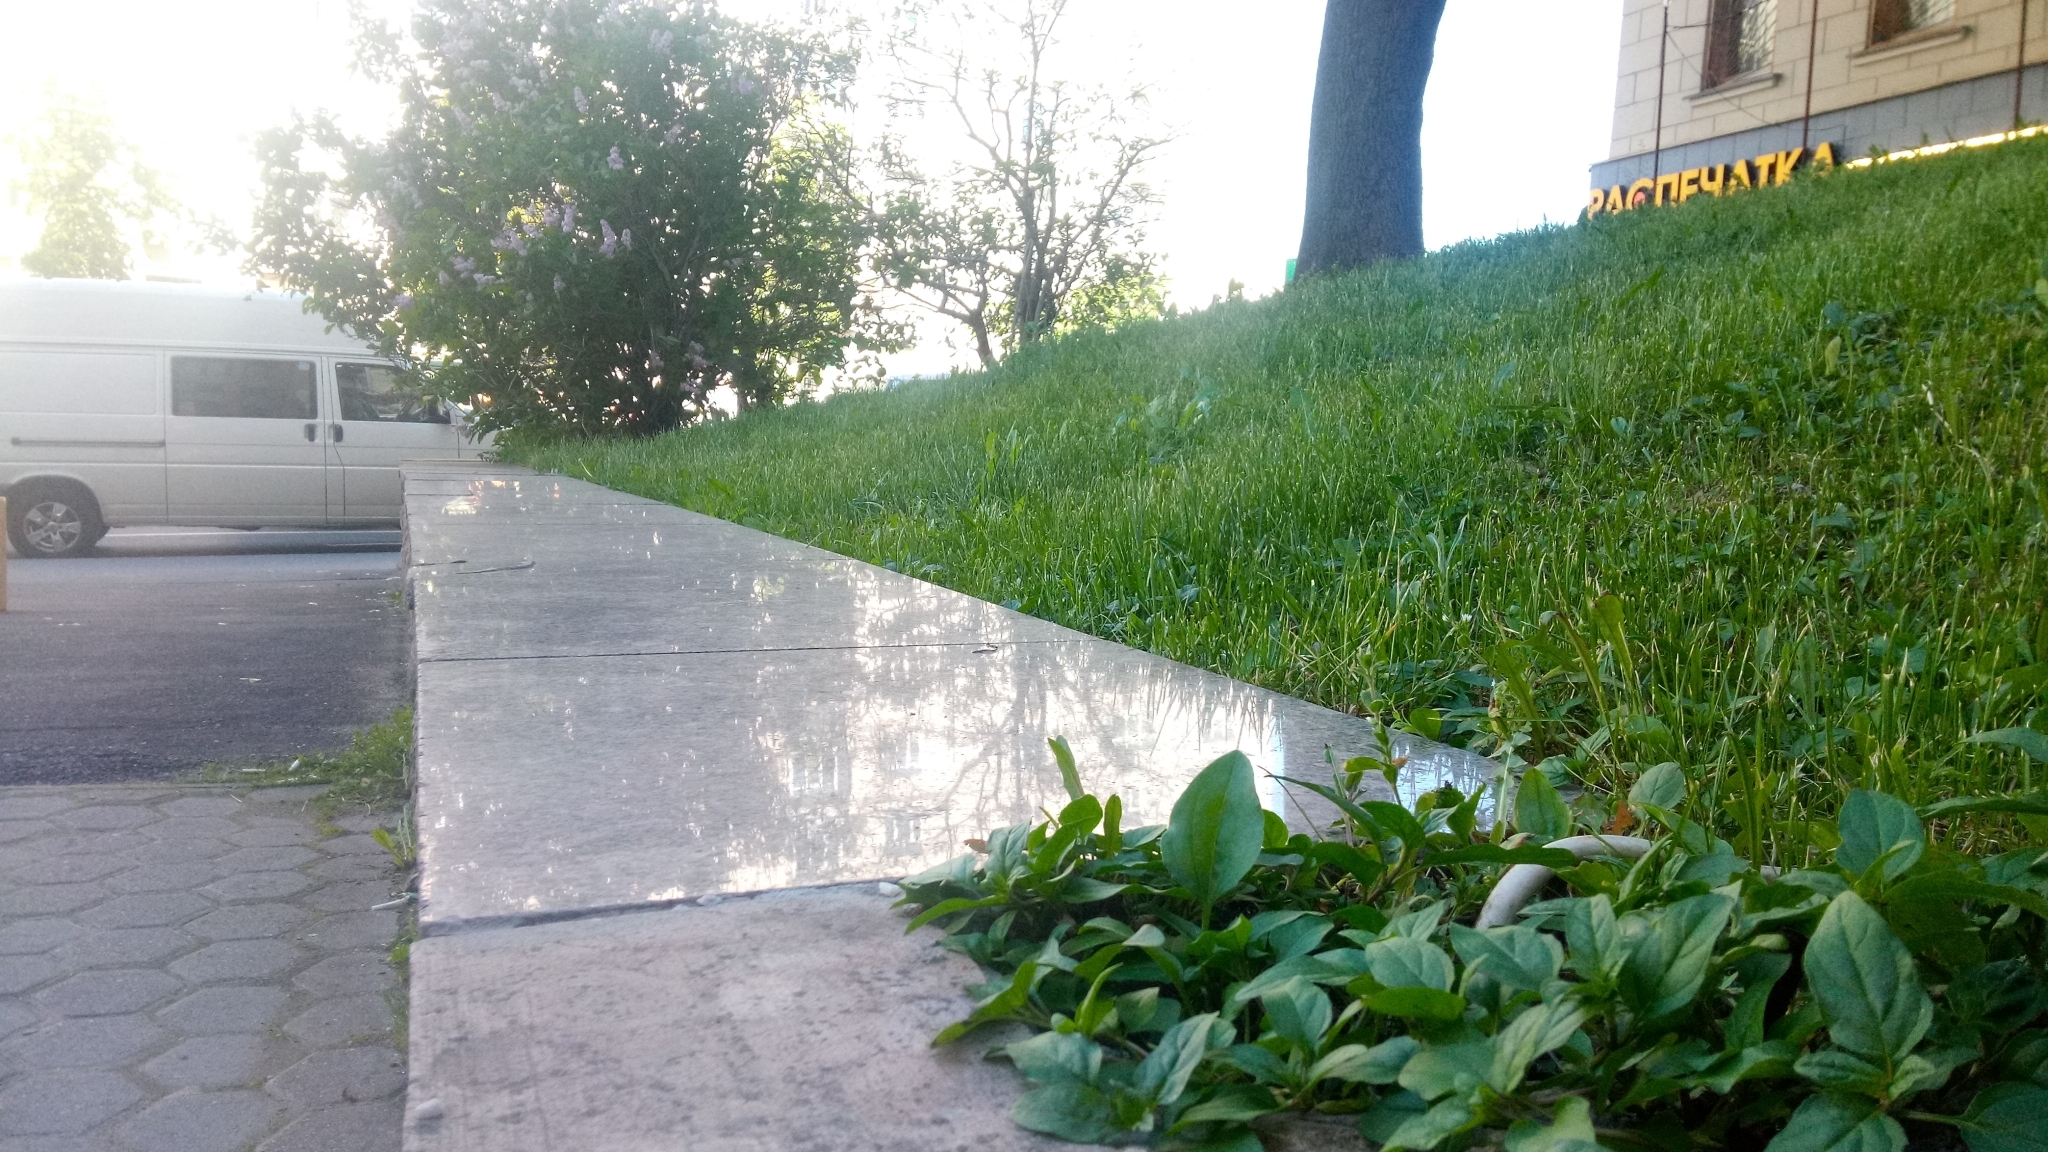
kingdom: Plantae
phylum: Tracheophyta
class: Magnoliopsida
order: Lamiales
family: Lamiaceae
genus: Prunella
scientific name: Prunella vulgaris
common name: Heal-all
